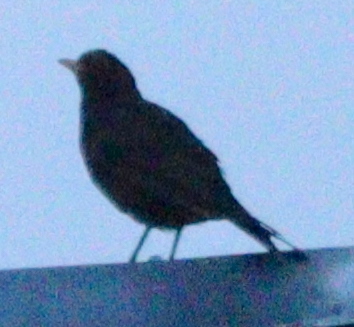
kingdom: Animalia
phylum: Chordata
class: Aves
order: Passeriformes
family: Turdidae
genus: Turdus
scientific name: Turdus merula
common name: Common blackbird
